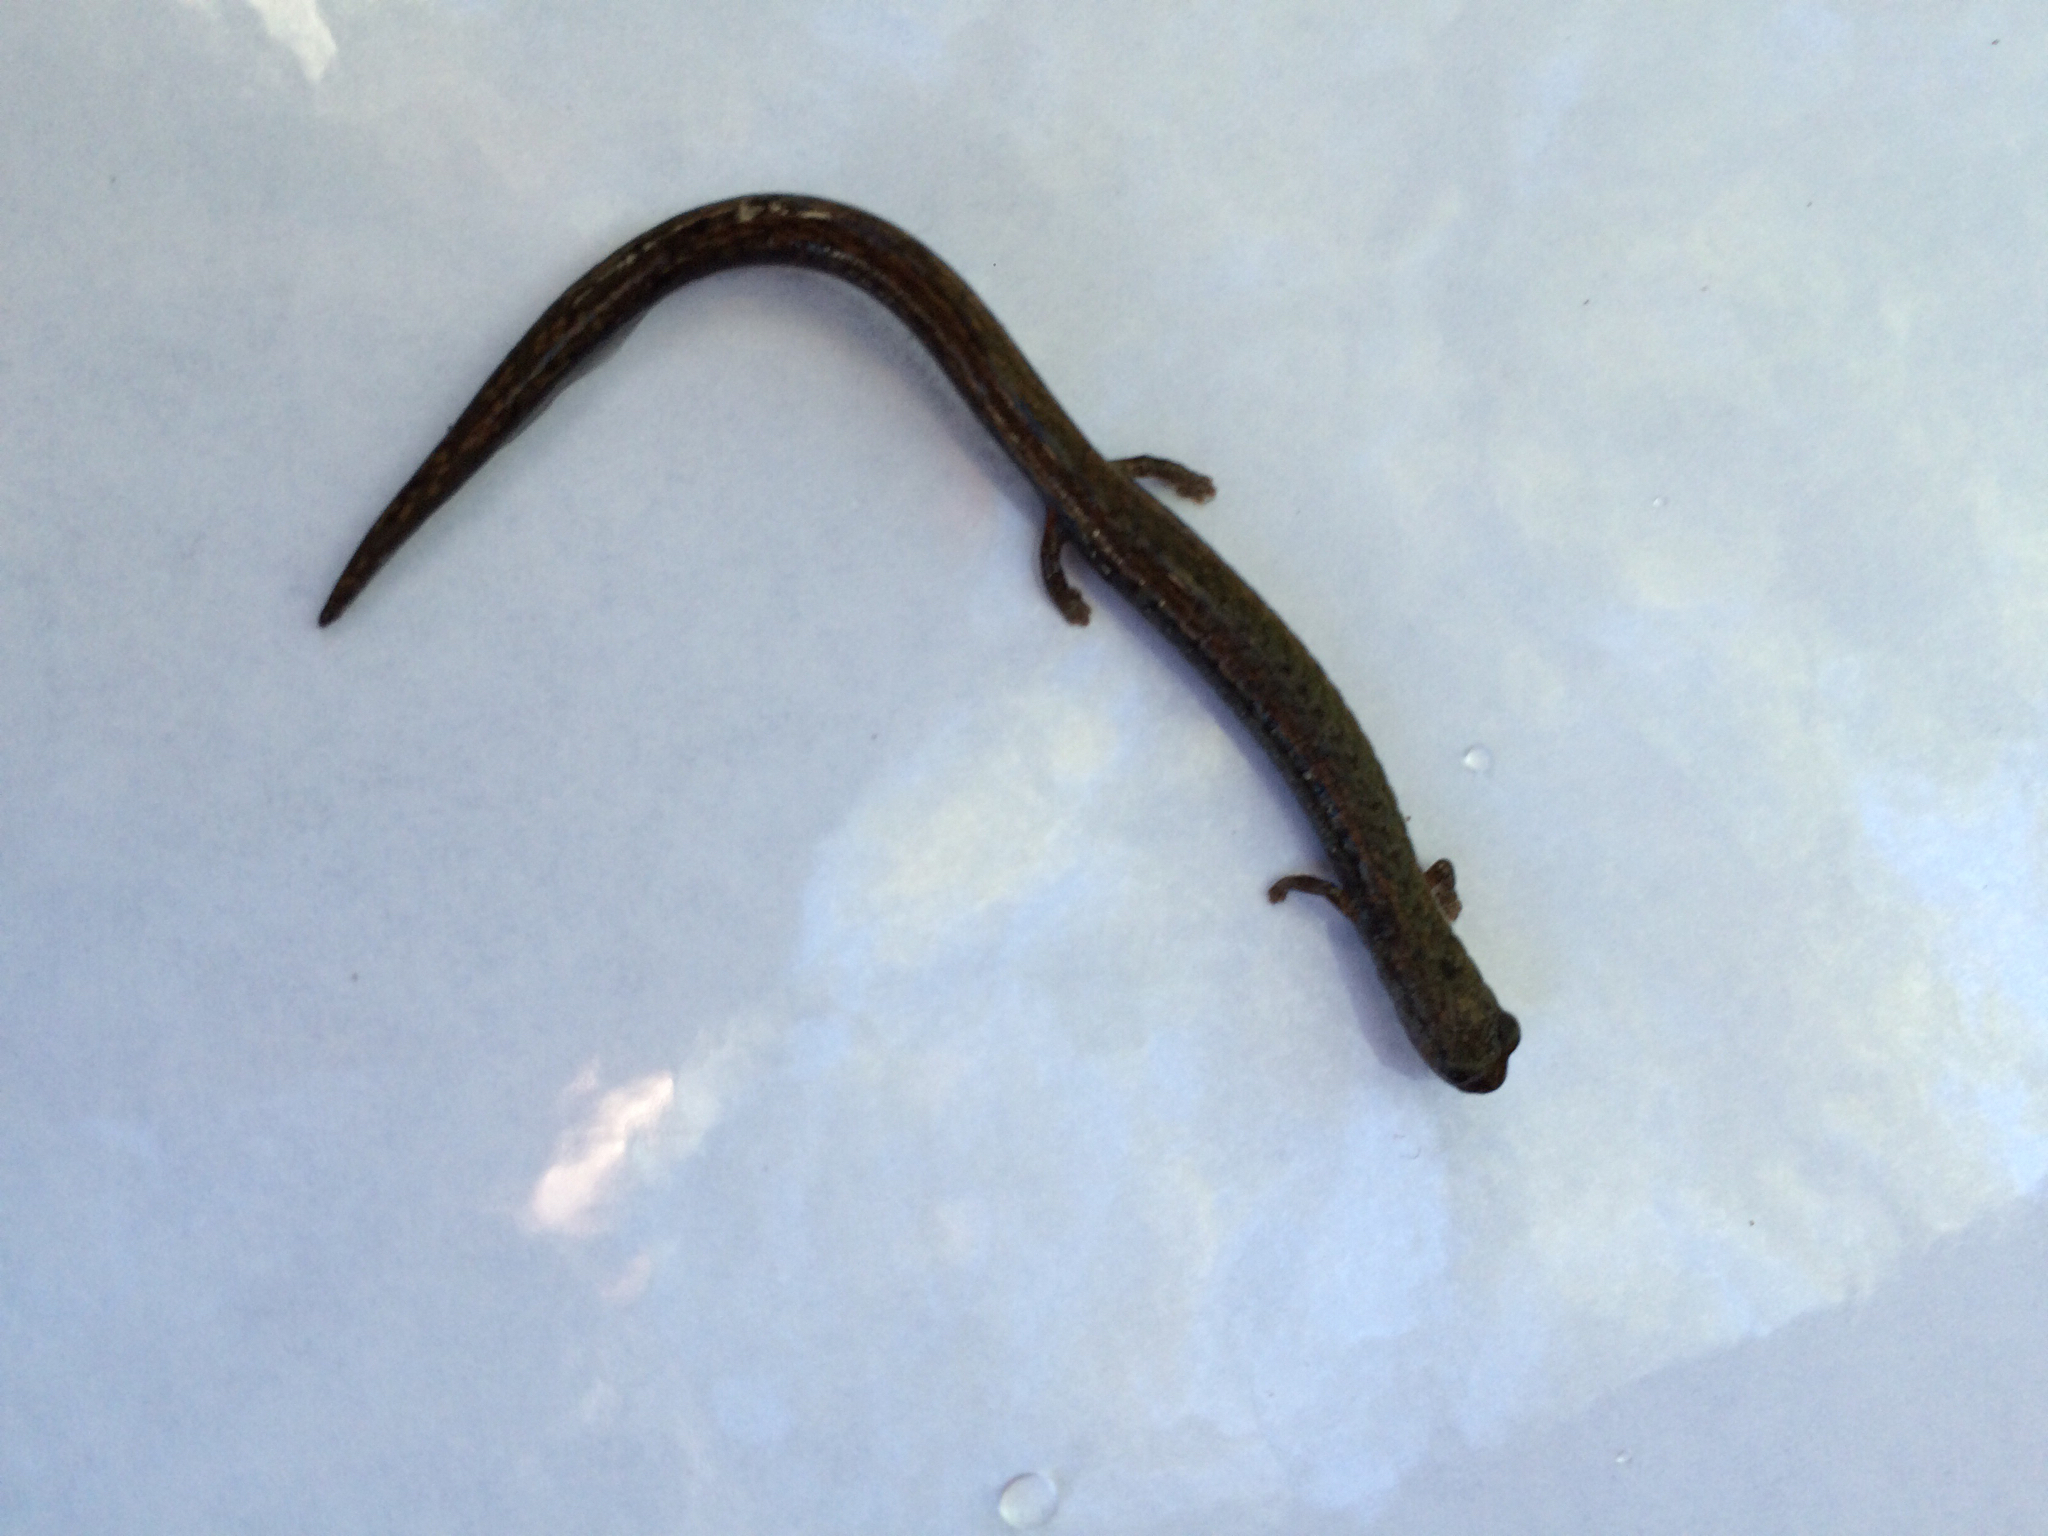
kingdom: Animalia
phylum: Chordata
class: Amphibia
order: Caudata
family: Plethodontidae
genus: Batrachoseps
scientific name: Batrachoseps attenuatus
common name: California slender salamander
